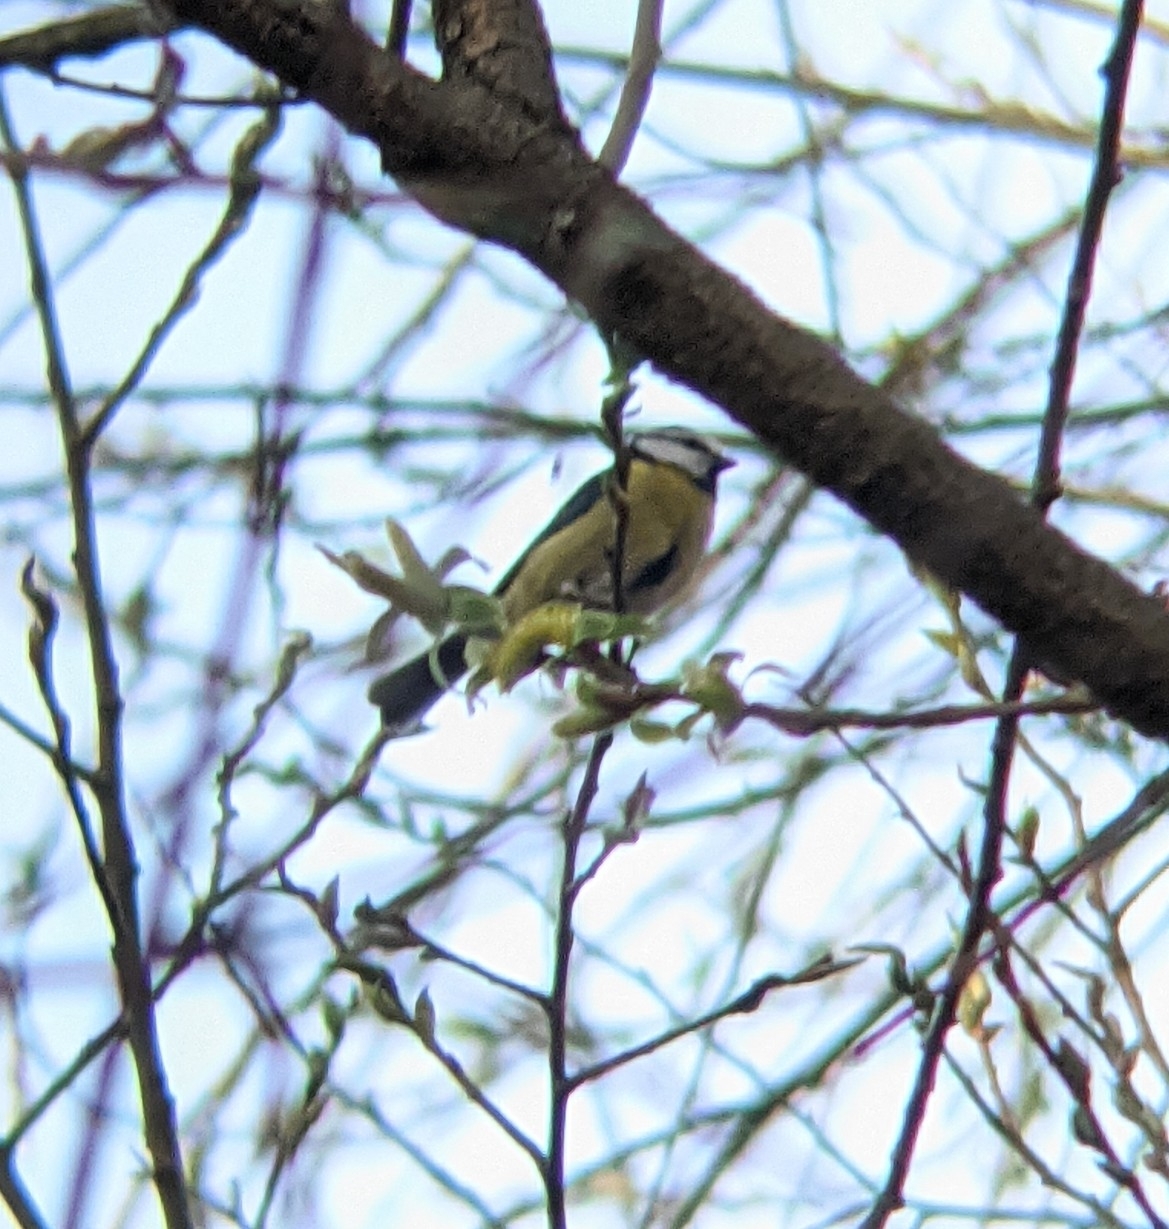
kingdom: Animalia
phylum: Chordata
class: Aves
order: Passeriformes
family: Paridae
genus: Cyanistes
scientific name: Cyanistes caeruleus
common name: Eurasian blue tit
